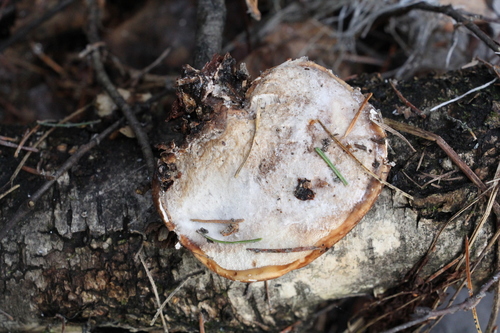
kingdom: Fungi
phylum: Basidiomycota
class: Agaricomycetes
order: Polyporales
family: Fomitopsidaceae
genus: Fomitopsis
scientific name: Fomitopsis betulina
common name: Birch polypore
